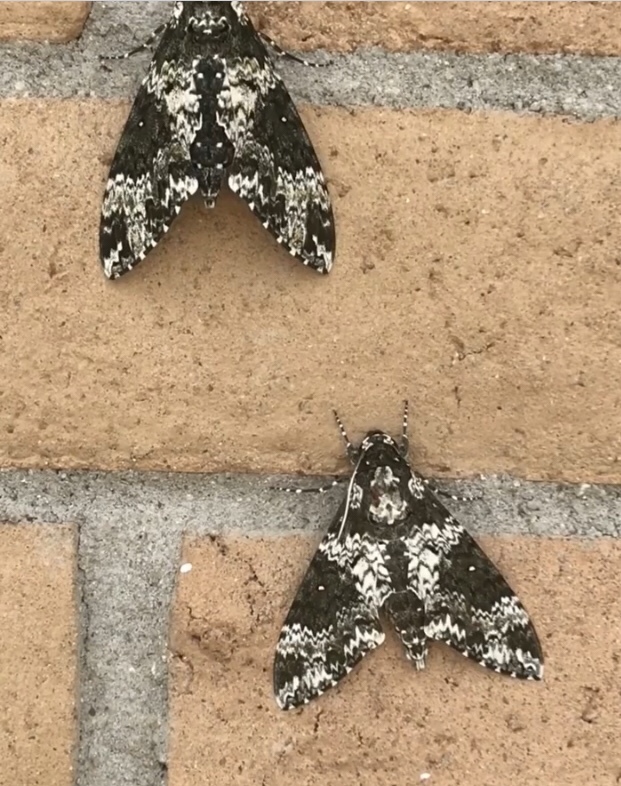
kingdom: Animalia
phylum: Arthropoda
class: Insecta
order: Lepidoptera
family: Sphingidae
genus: Manduca
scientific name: Manduca rustica
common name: Rustic sphinx
